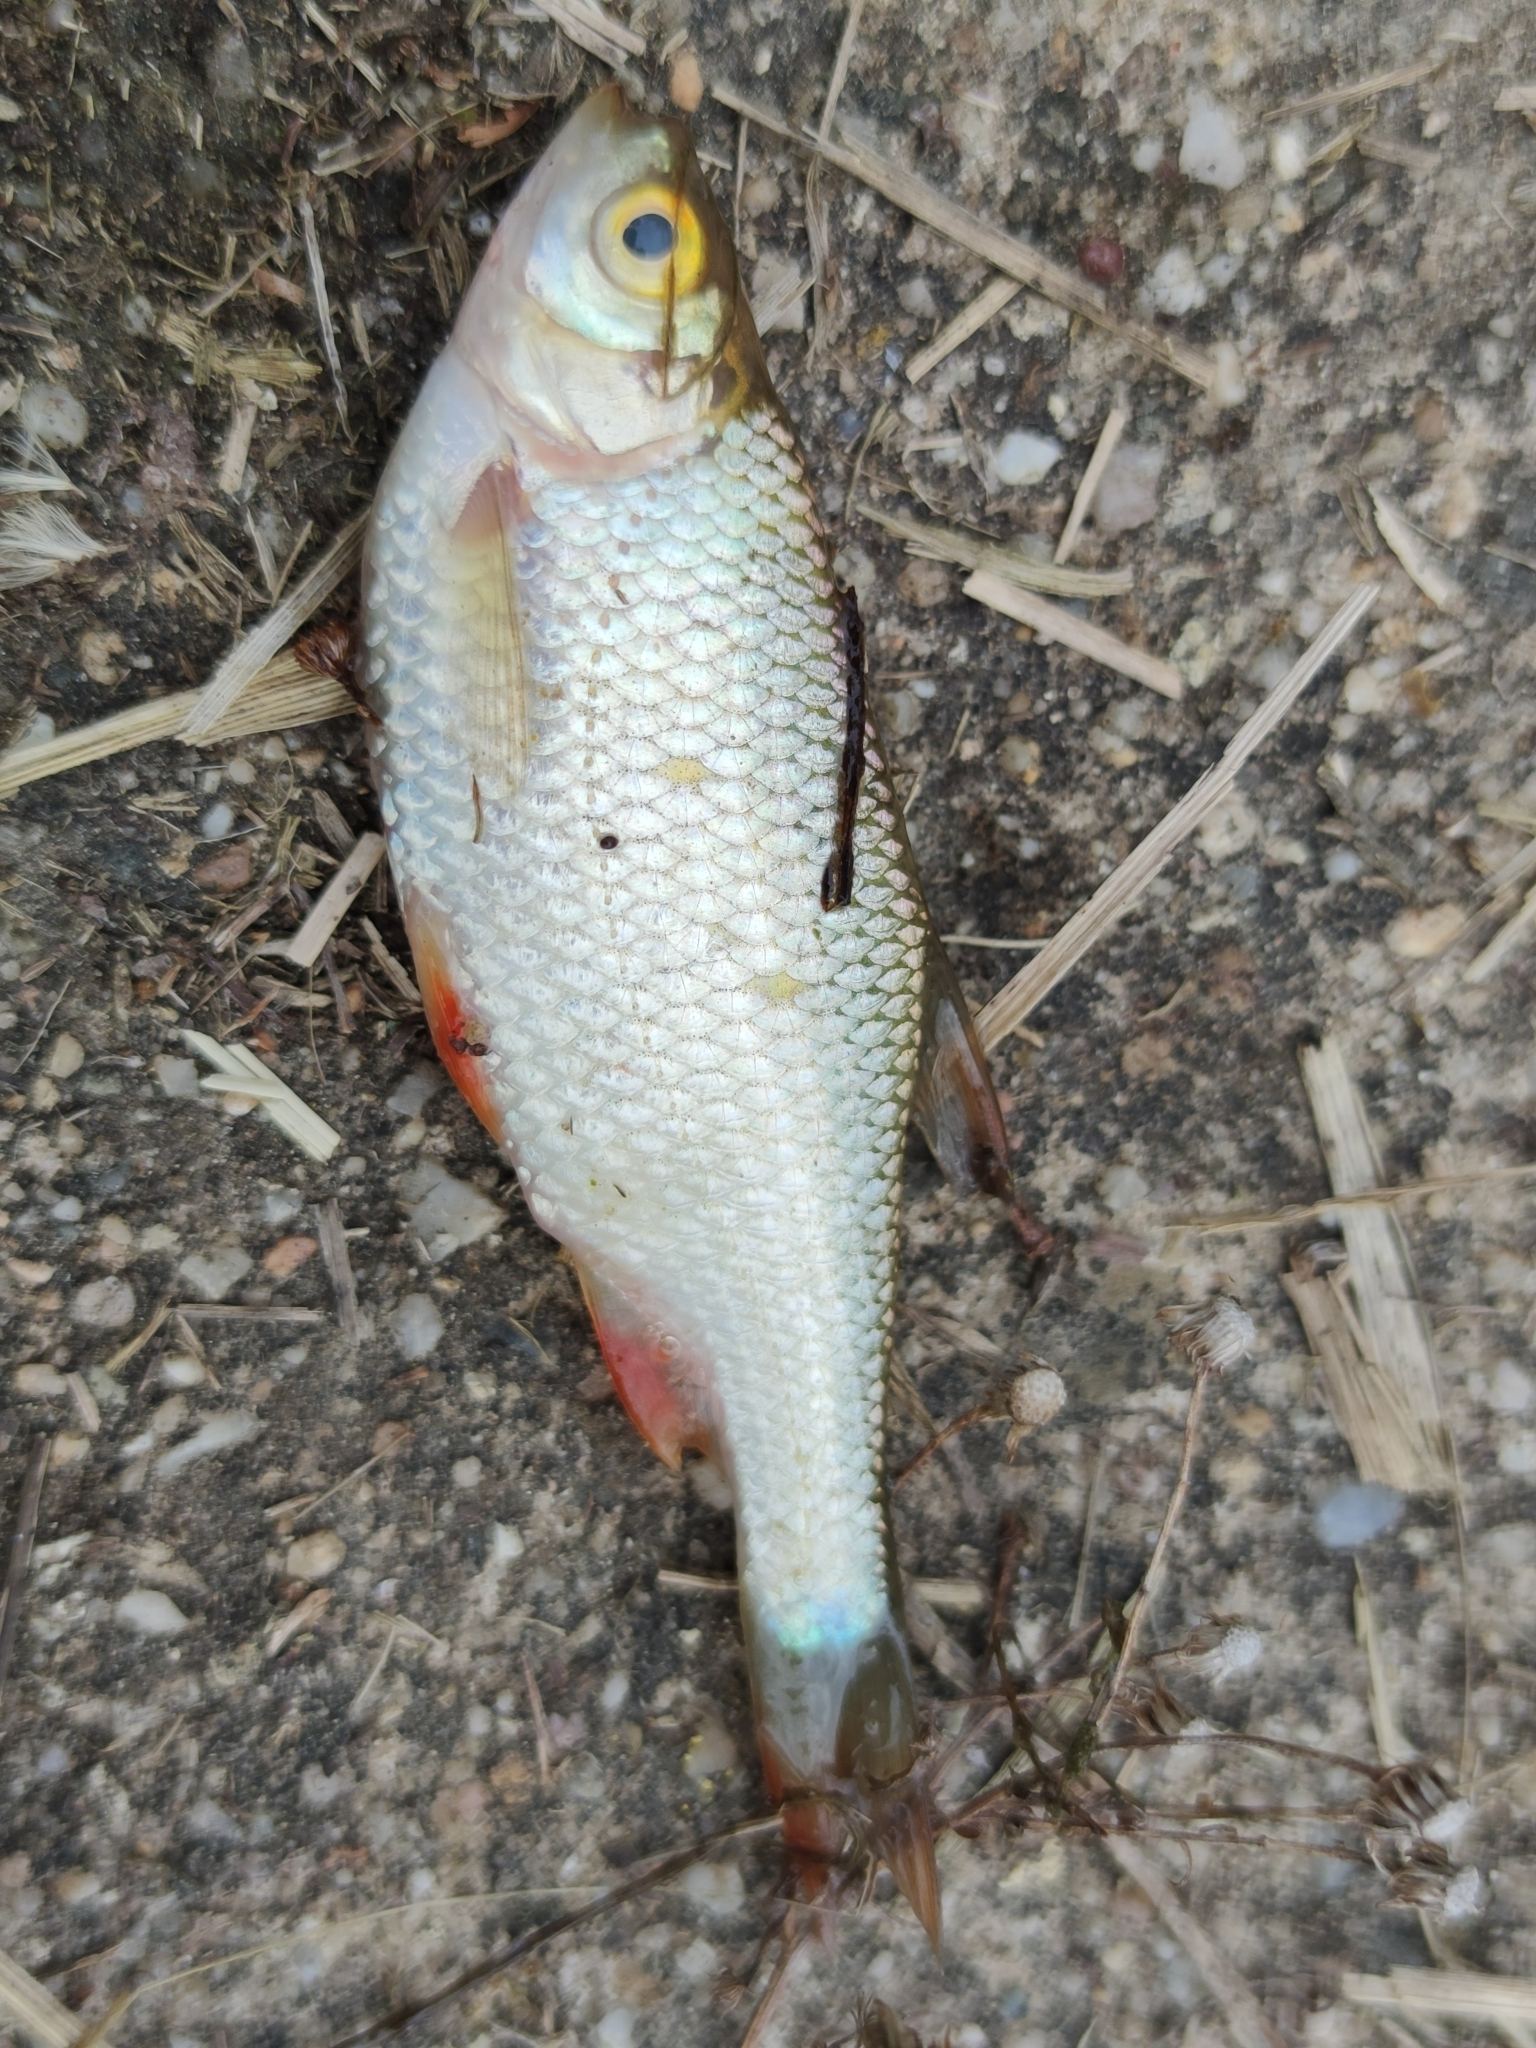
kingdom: Animalia
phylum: Chordata
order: Cypriniformes
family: Cyprinidae
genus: Scardinius
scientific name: Scardinius erythrophthalmus
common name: Rudd
